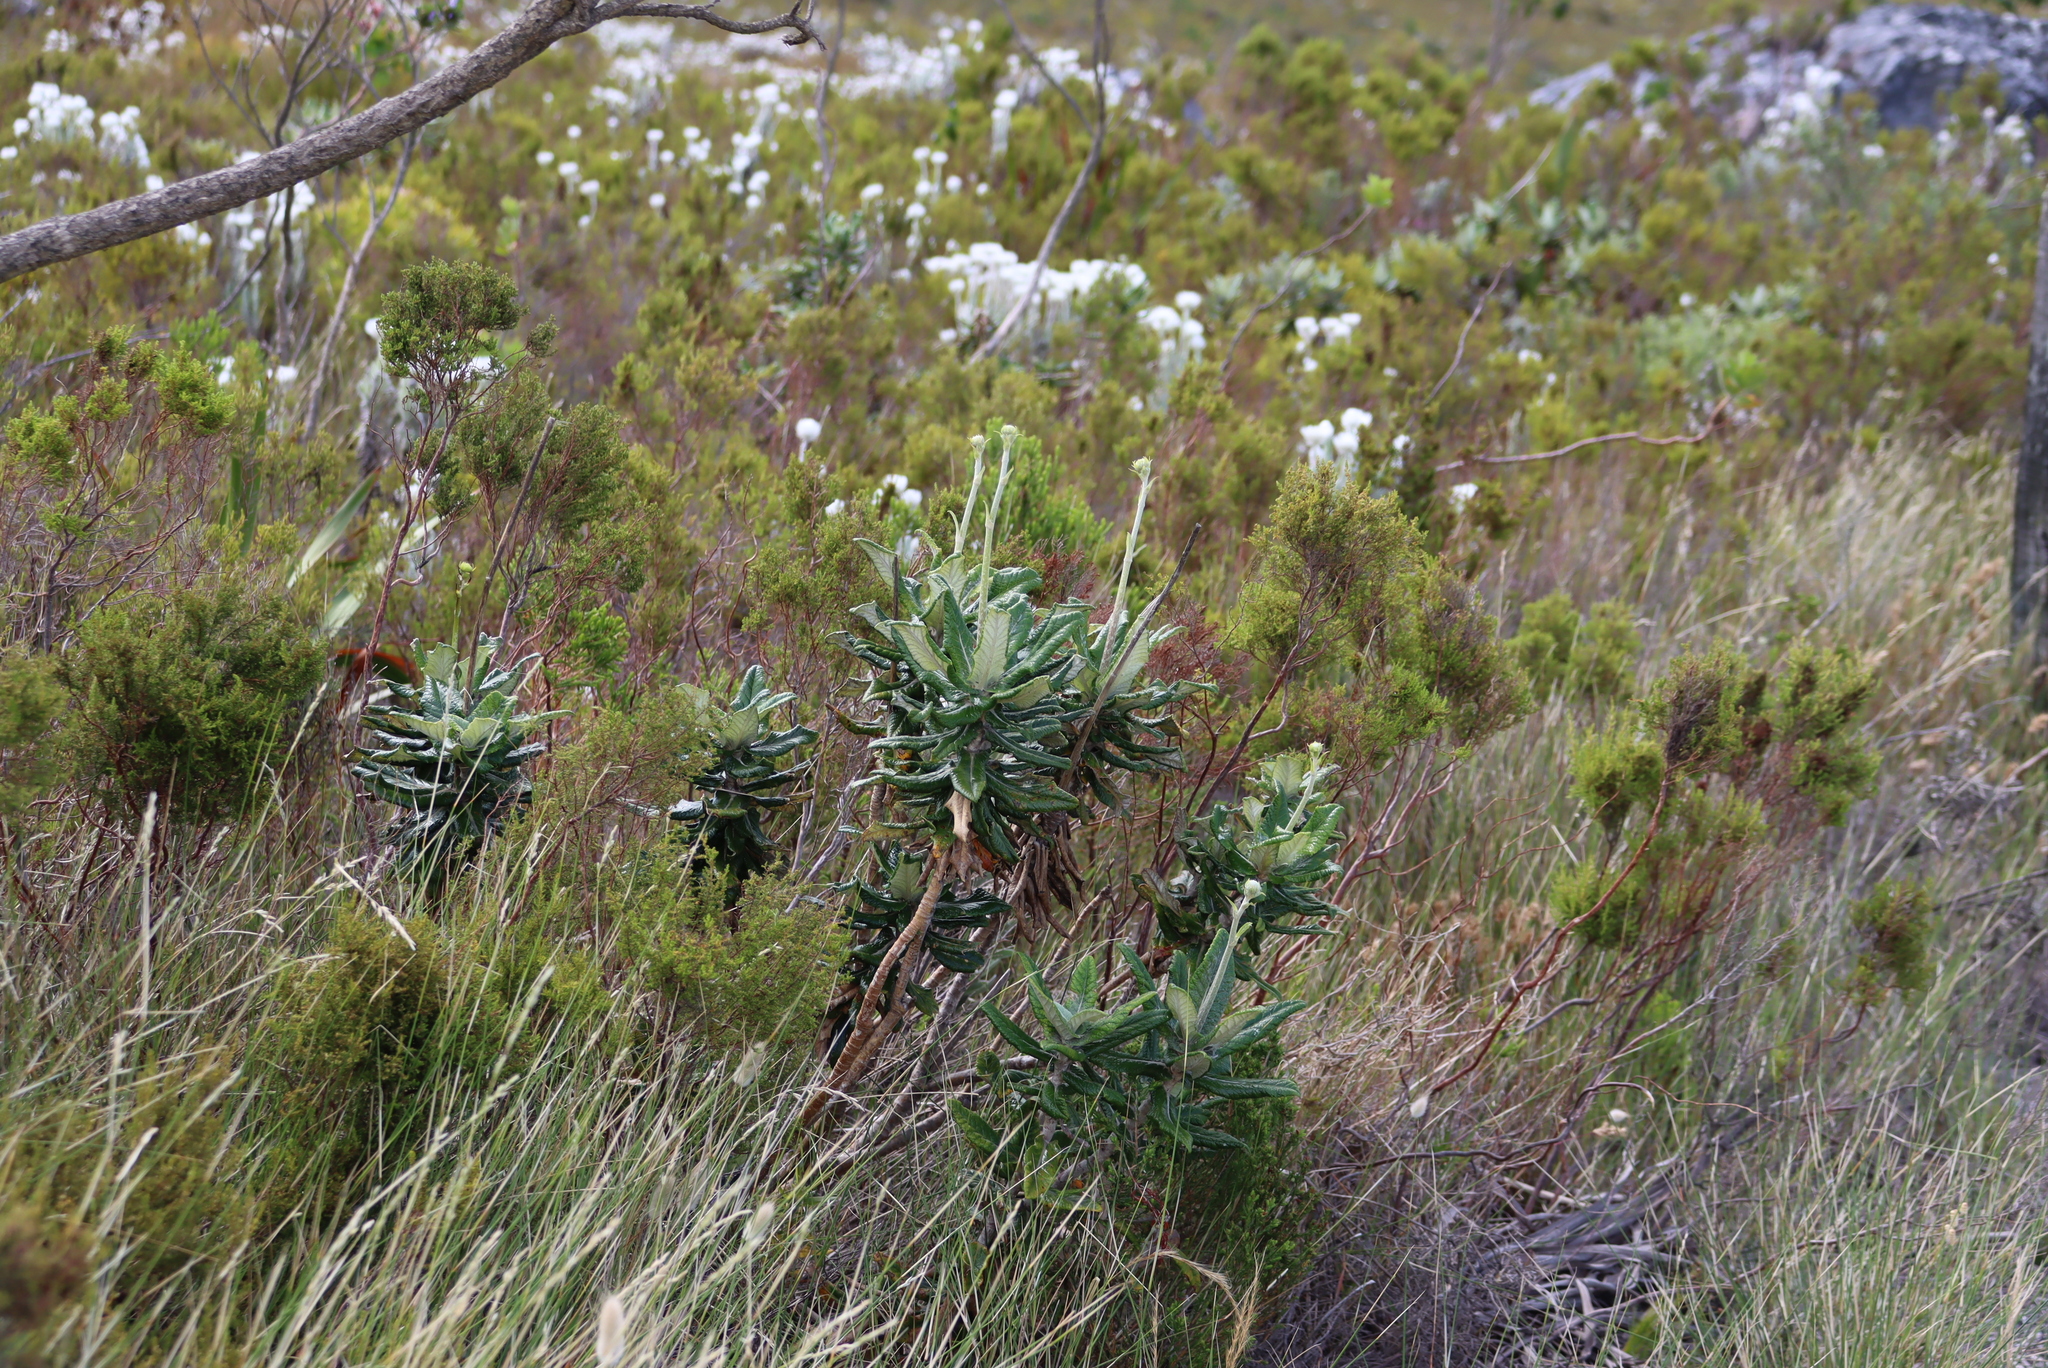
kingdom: Plantae
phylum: Tracheophyta
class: Magnoliopsida
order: Apiales
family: Apiaceae
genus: Hermas
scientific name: Hermas villosa
